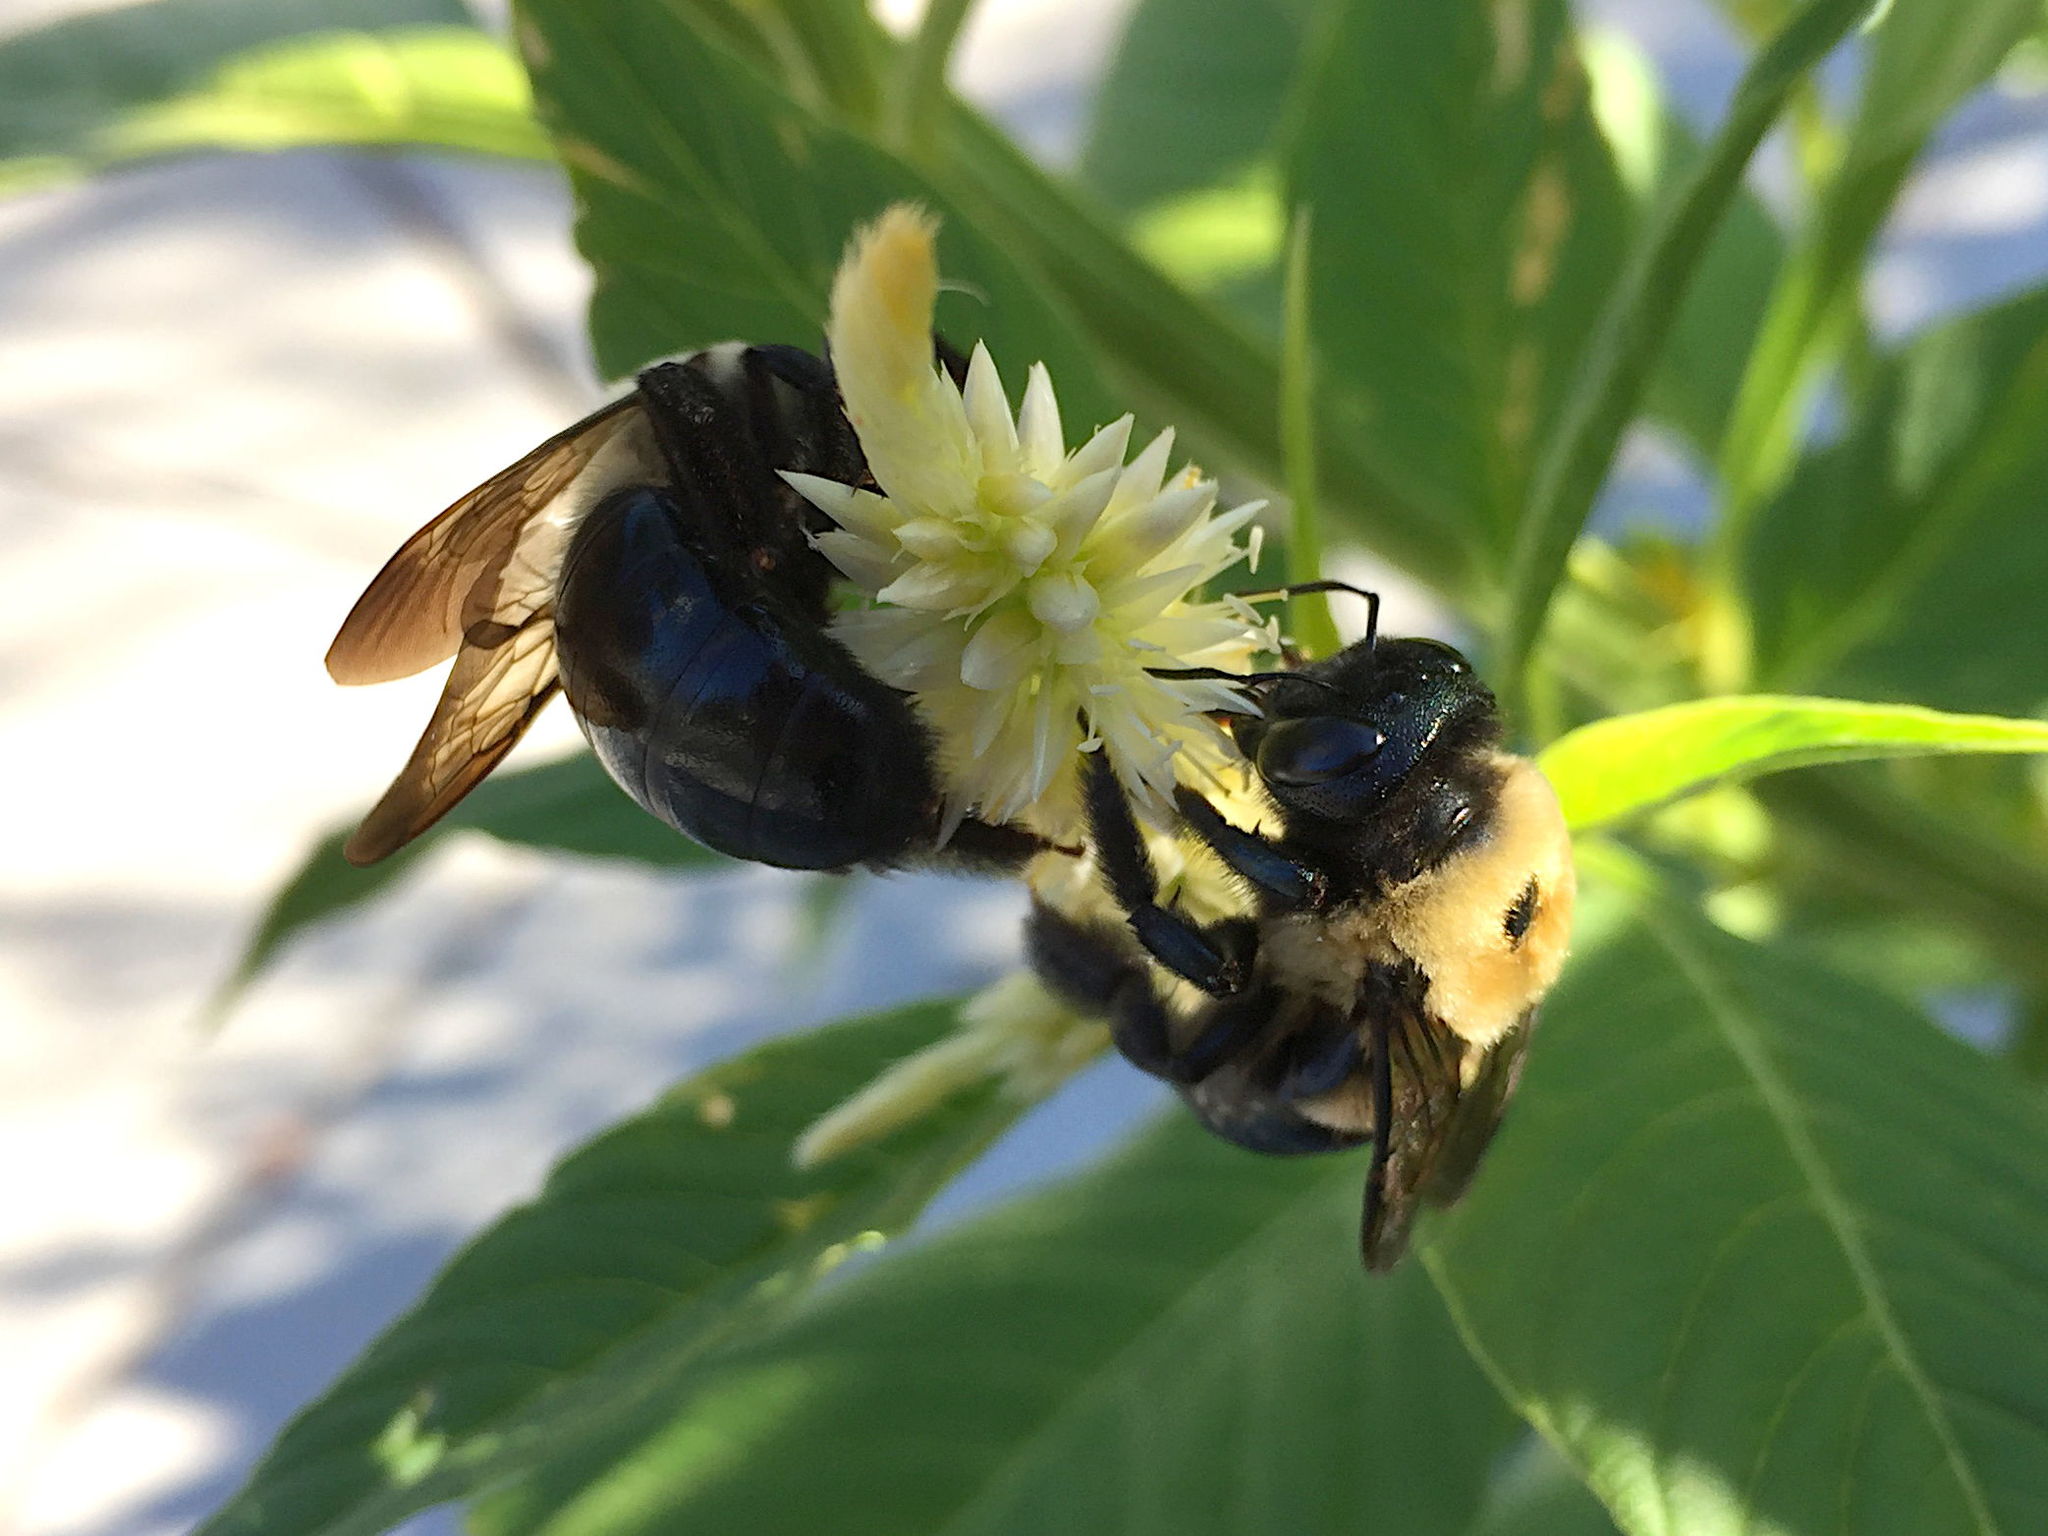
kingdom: Animalia
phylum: Arthropoda
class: Insecta
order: Hymenoptera
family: Apidae
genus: Xylocopa
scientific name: Xylocopa virginica
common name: Carpenter bee
